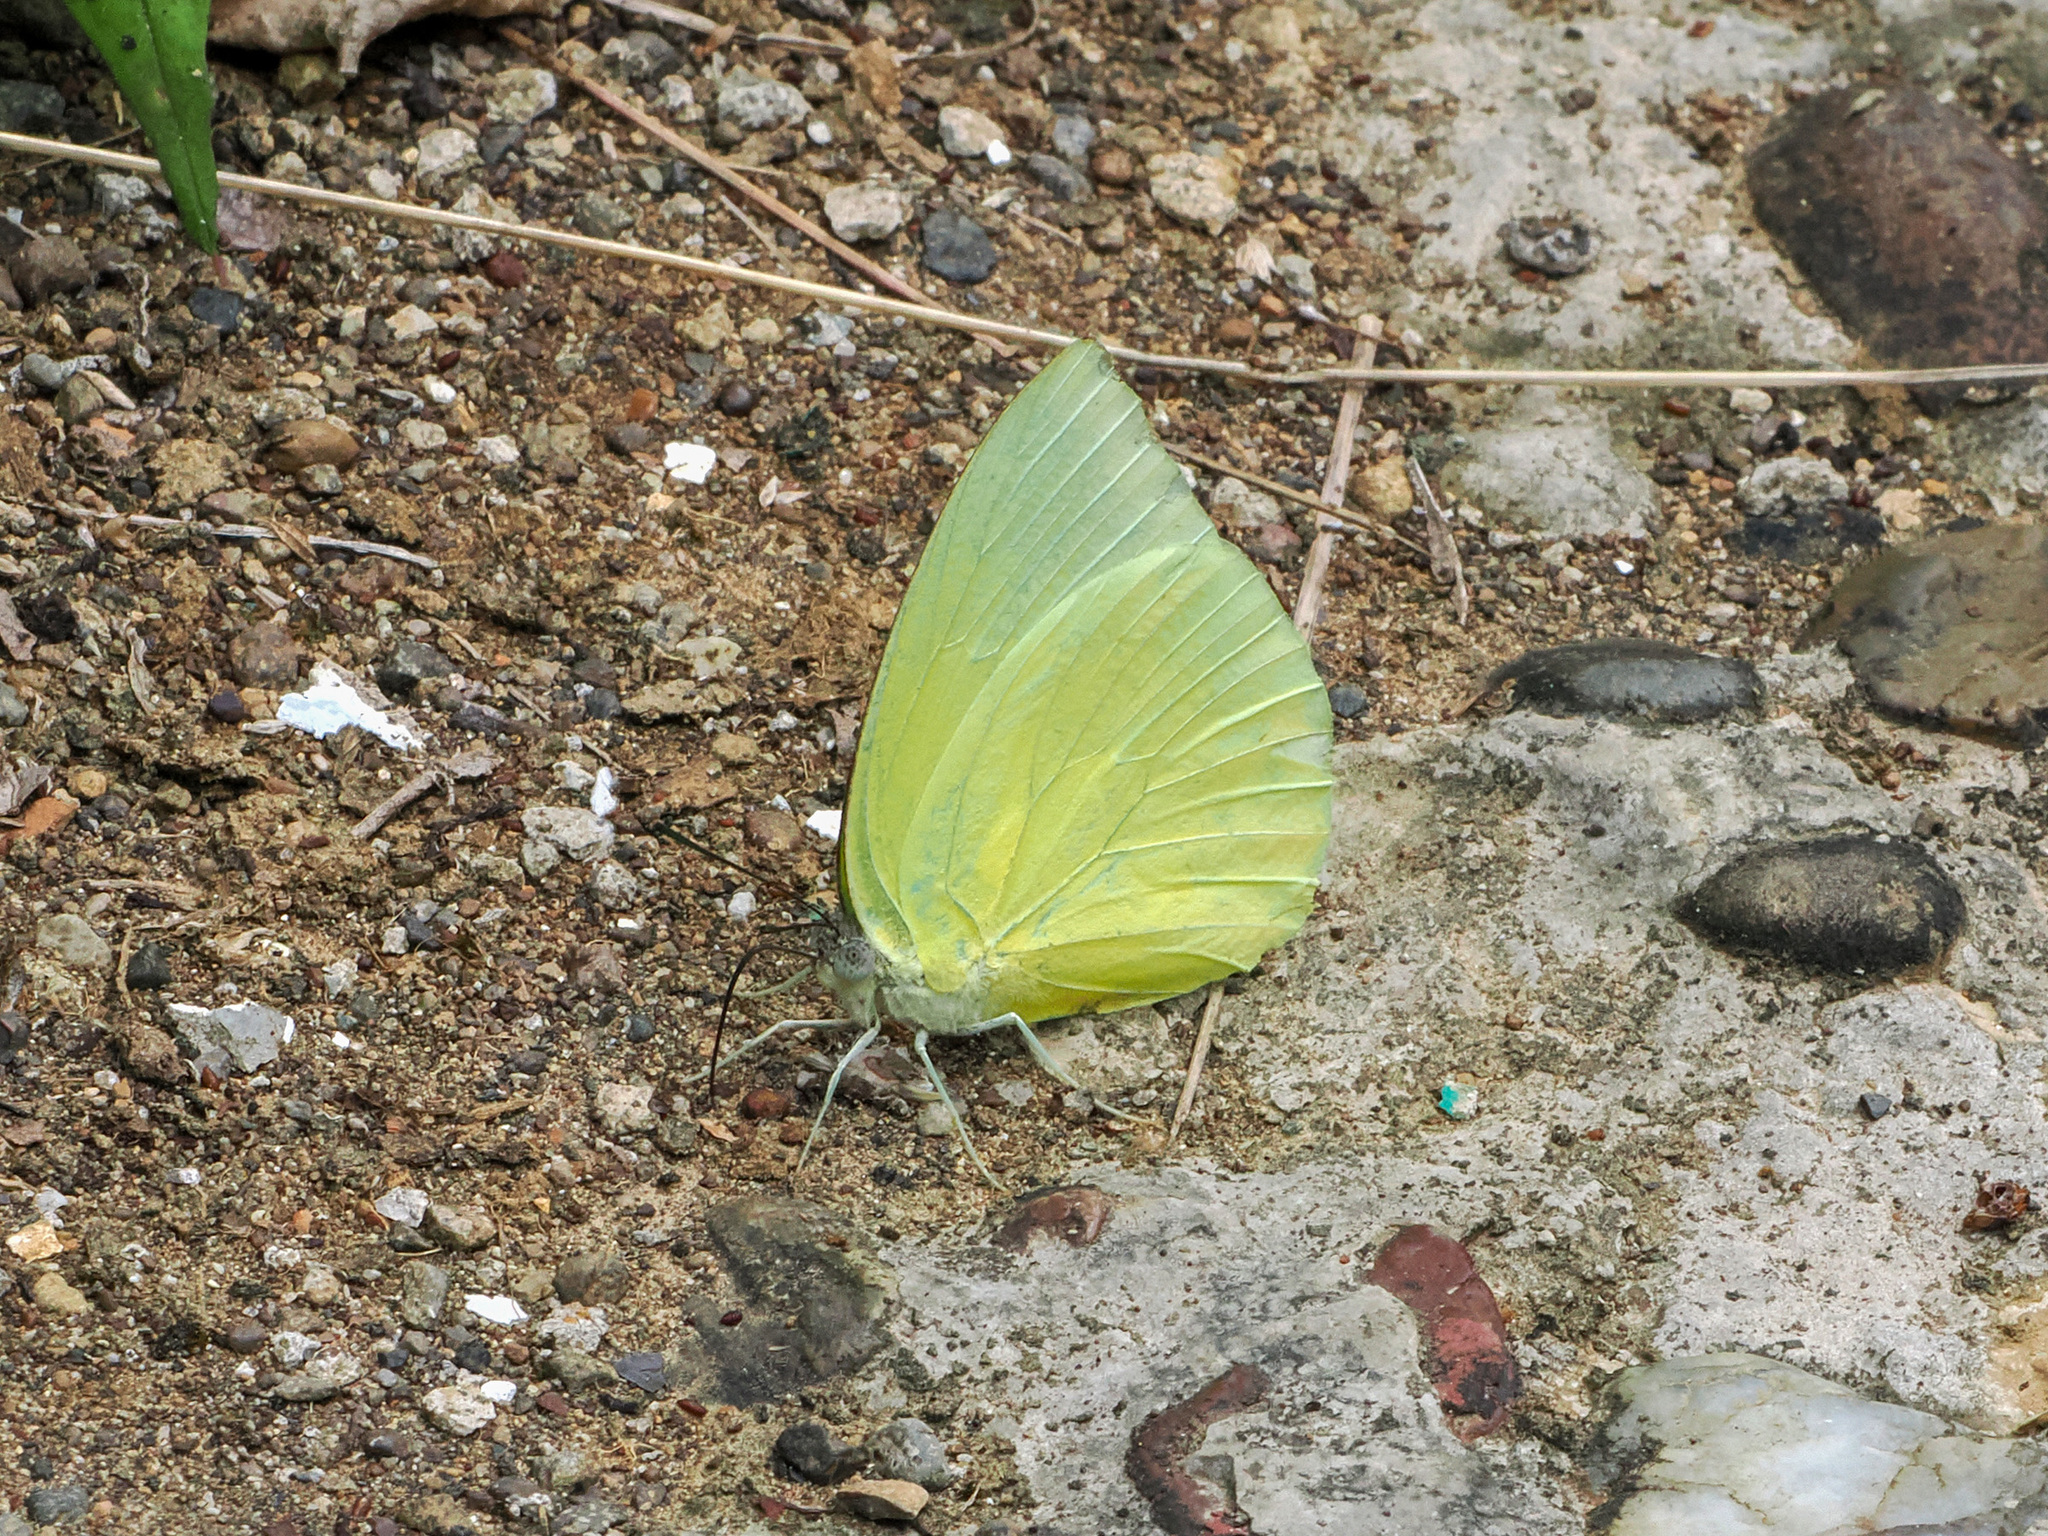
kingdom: Animalia
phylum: Arthropoda
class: Insecta
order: Lepidoptera
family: Pieridae
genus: Catopsilia
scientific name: Catopsilia pomona
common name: Common emigrant
